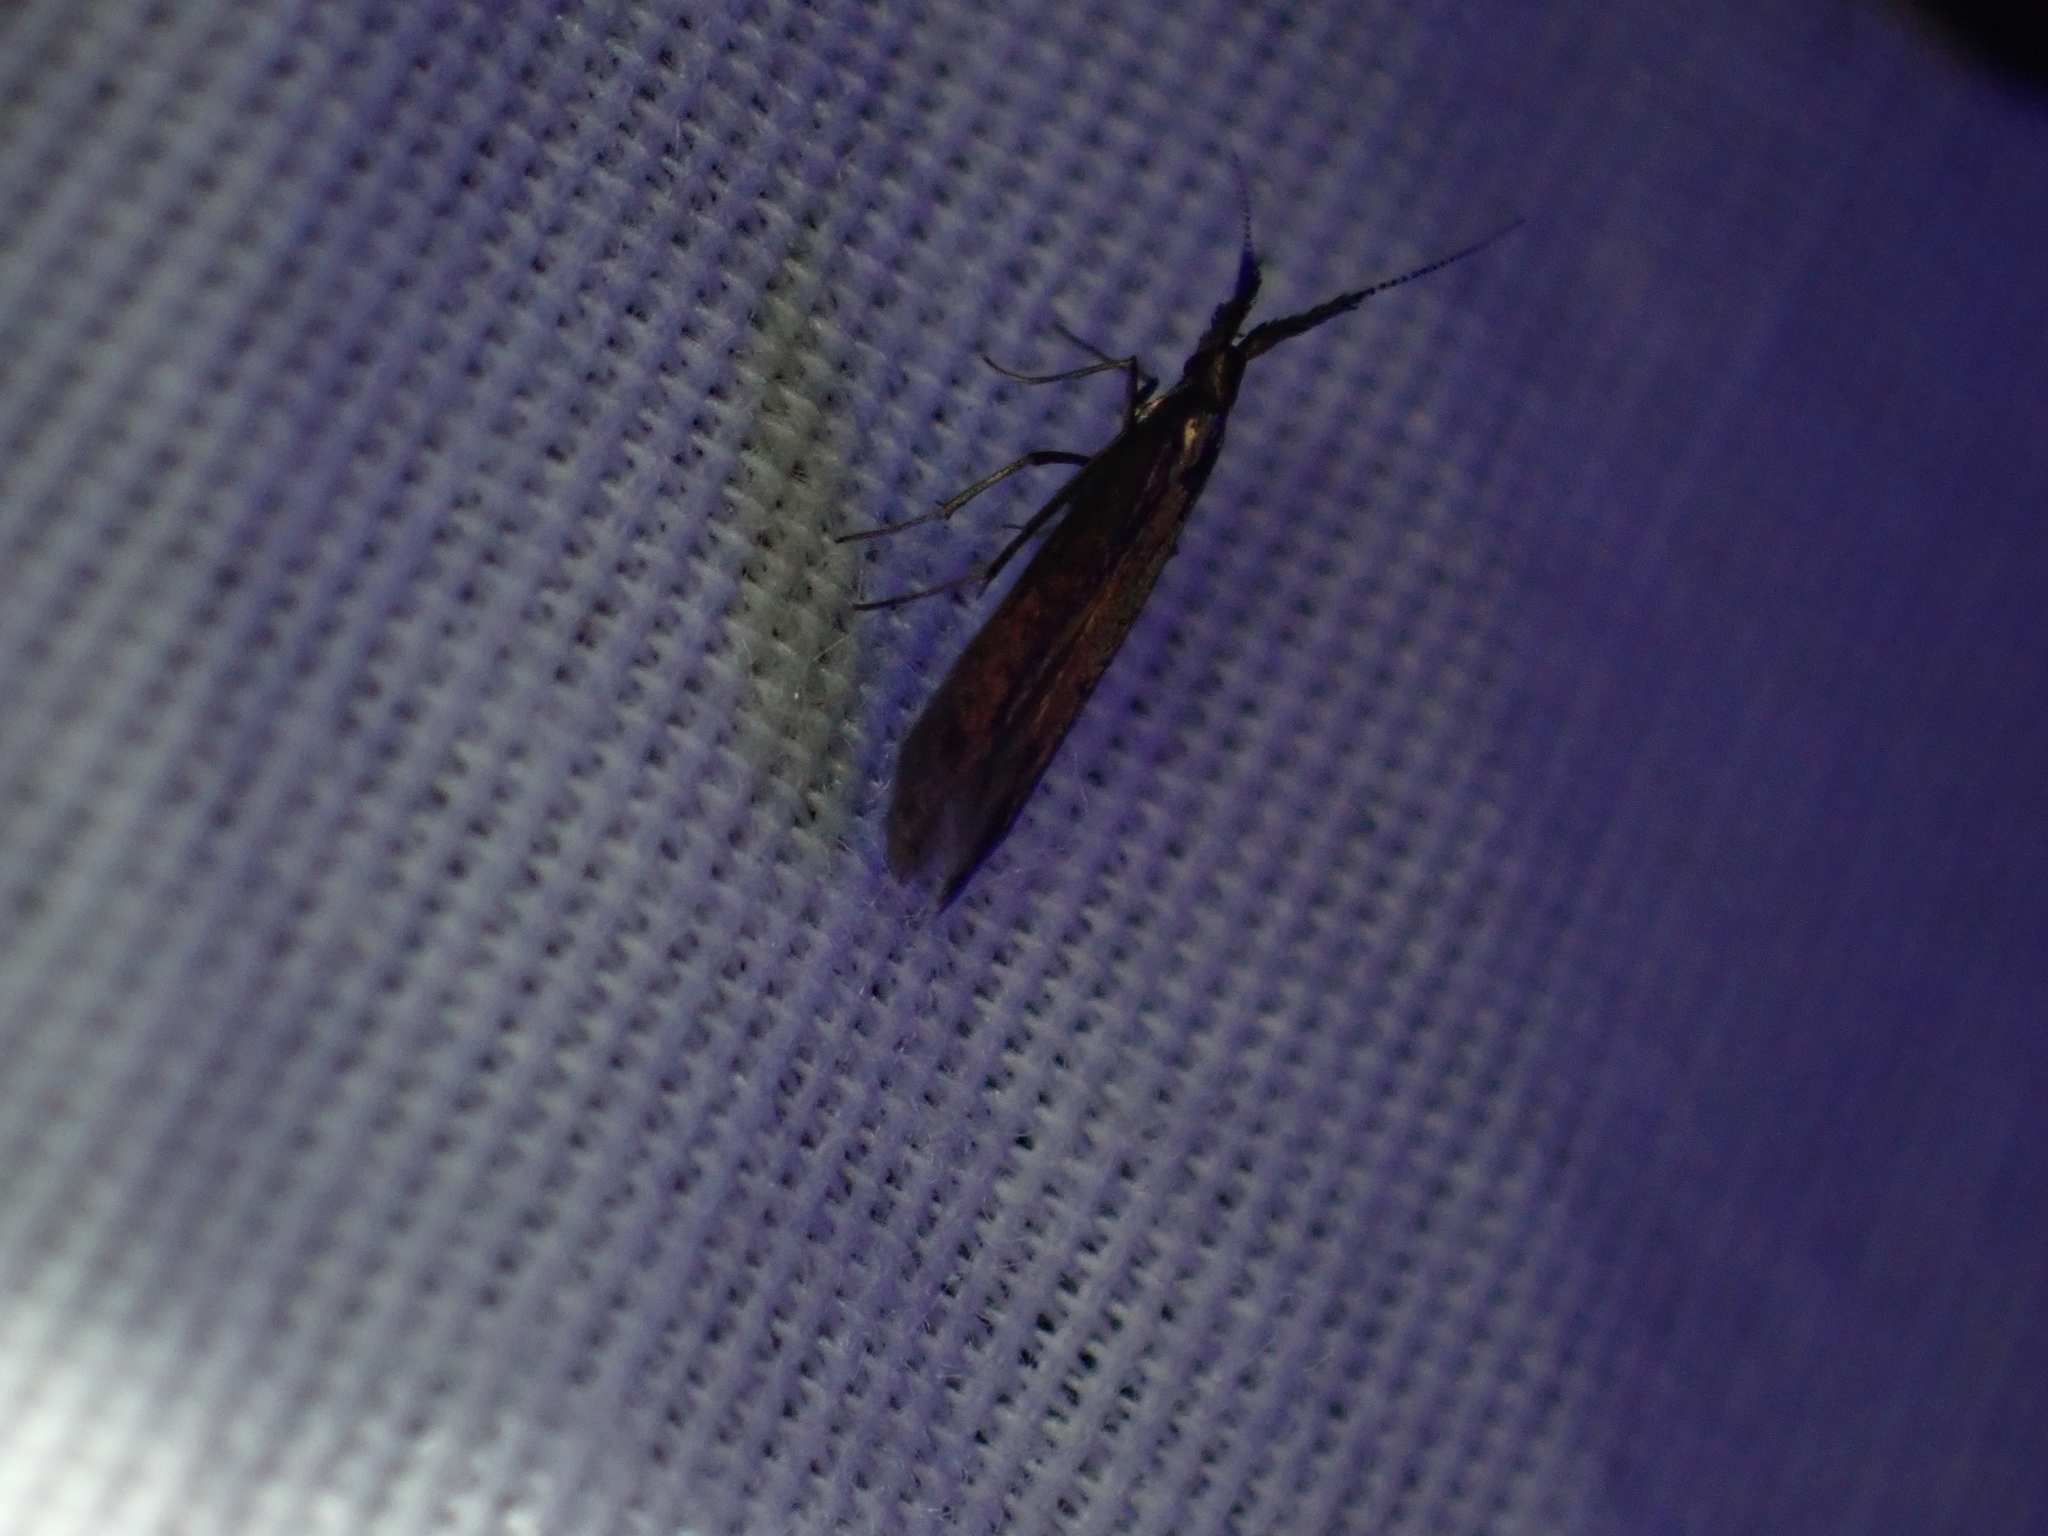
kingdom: Animalia
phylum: Arthropoda
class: Insecta
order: Lepidoptera
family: Coleophoridae
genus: Coleophora
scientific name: Coleophora mayrella
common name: Meadow case-bearer
